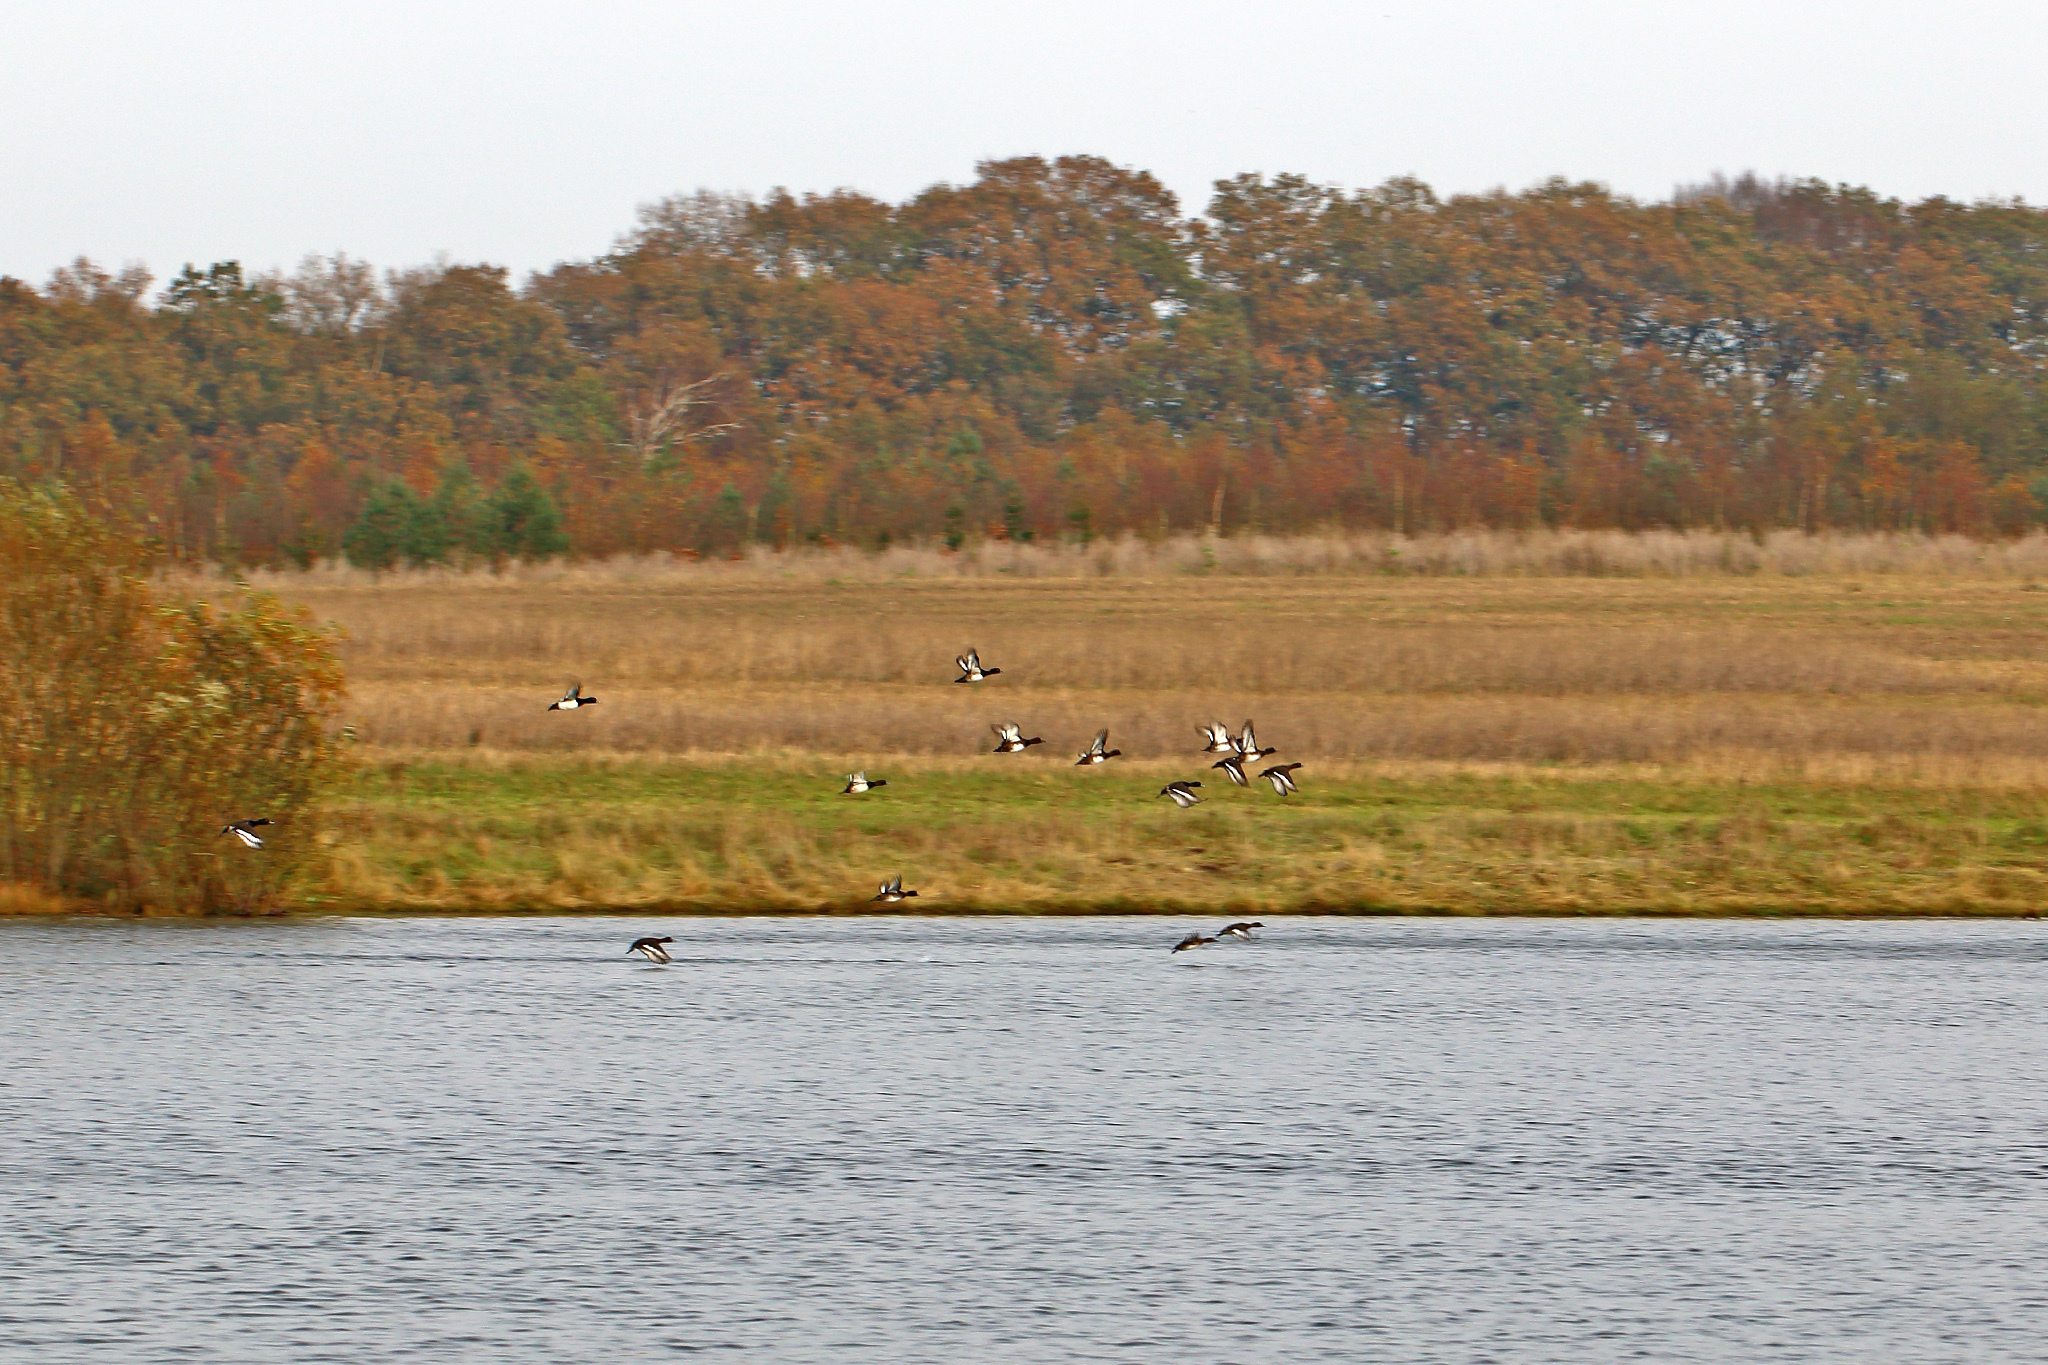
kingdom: Animalia
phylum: Chordata
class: Aves
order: Anseriformes
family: Anatidae
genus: Aythya
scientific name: Aythya fuligula
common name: Tufted duck
